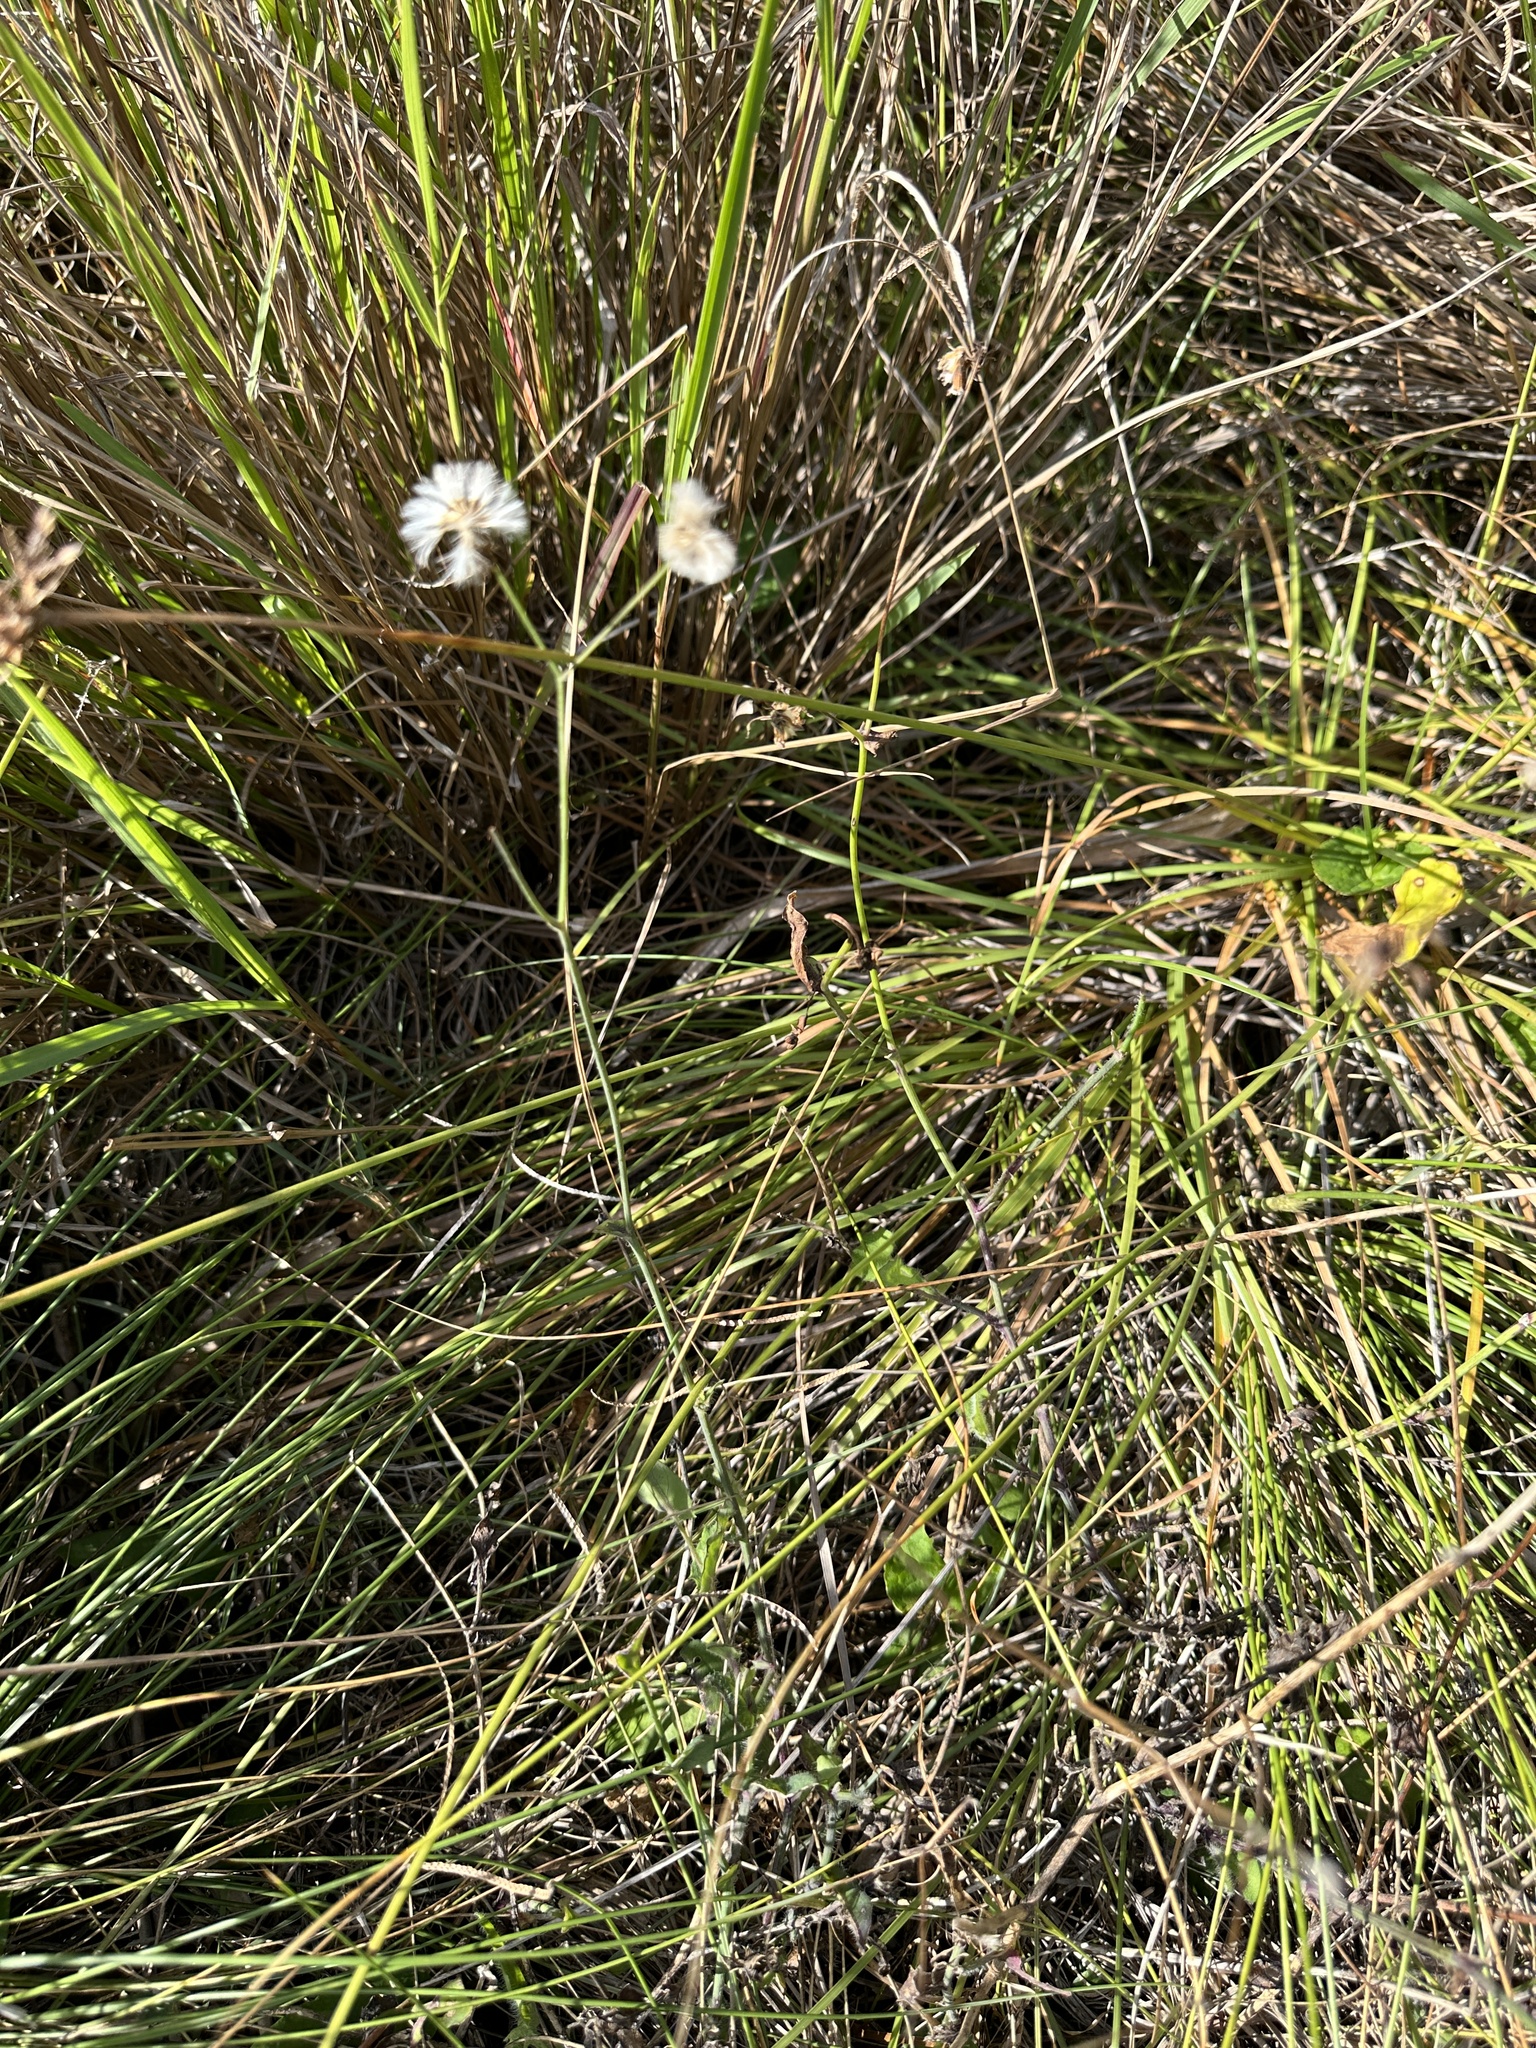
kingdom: Plantae
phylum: Tracheophyta
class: Magnoliopsida
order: Asterales
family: Asteraceae
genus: Emilia
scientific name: Emilia sonchifolia
